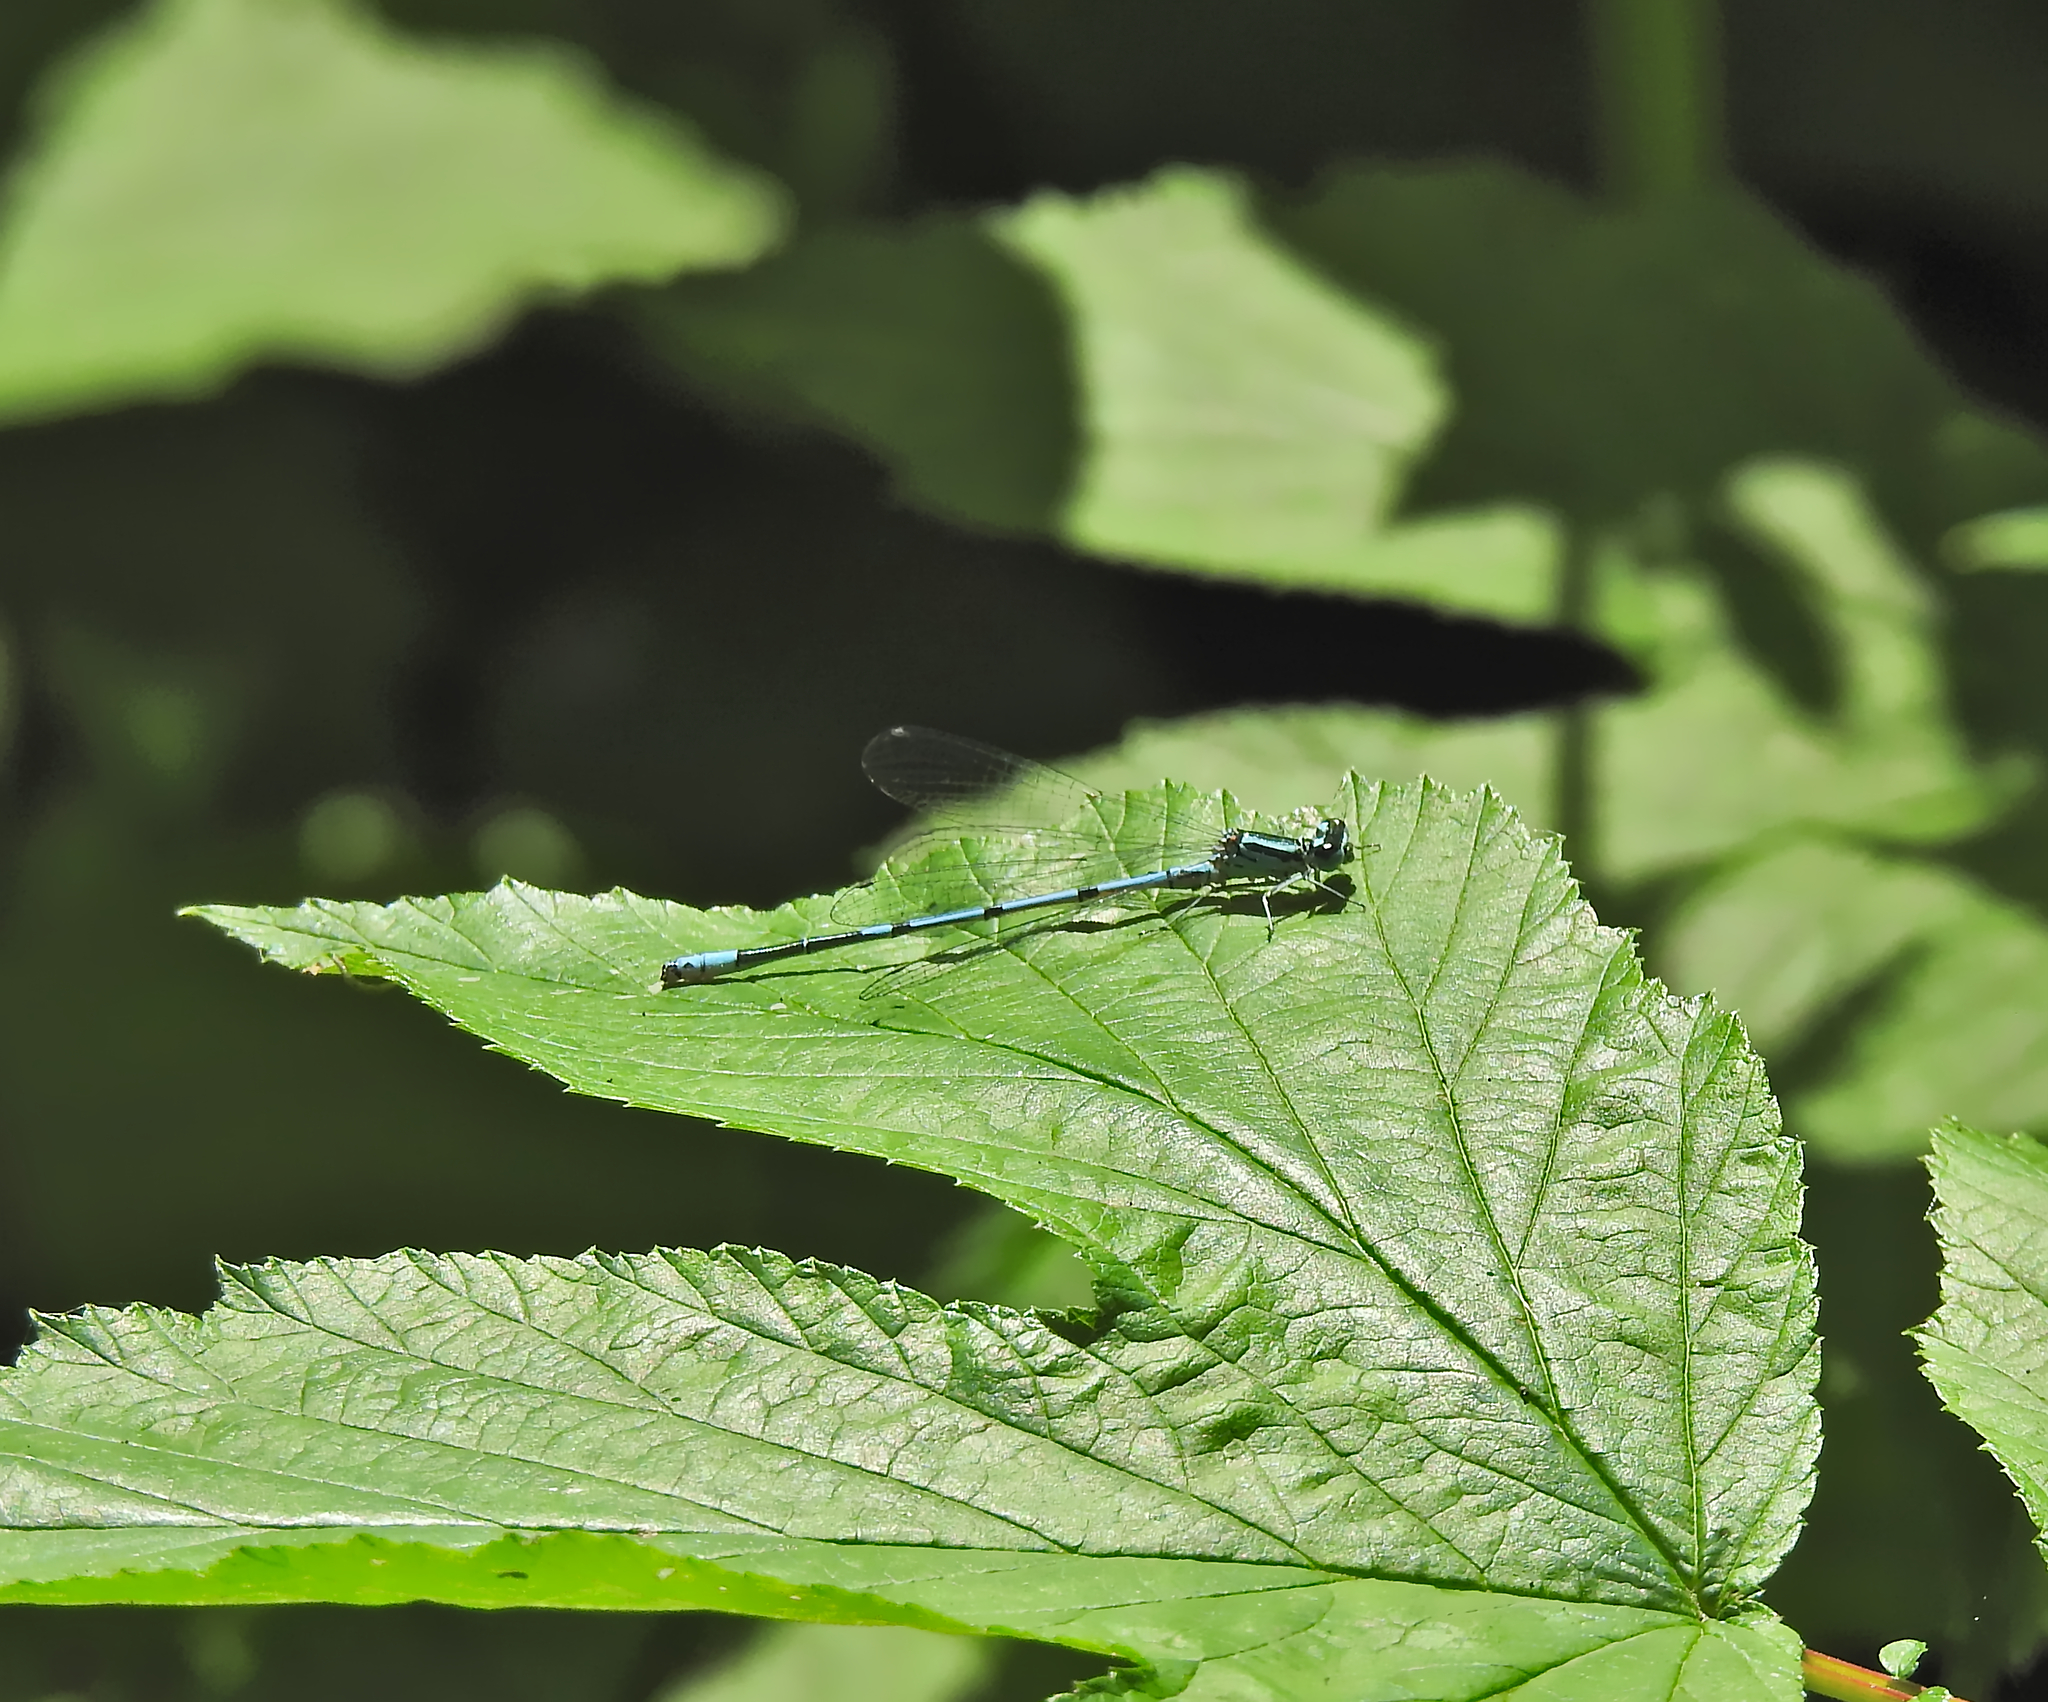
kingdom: Animalia
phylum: Arthropoda
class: Insecta
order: Odonata
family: Coenagrionidae
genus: Coenagrion
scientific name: Coenagrion puella
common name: Azure damselfly
